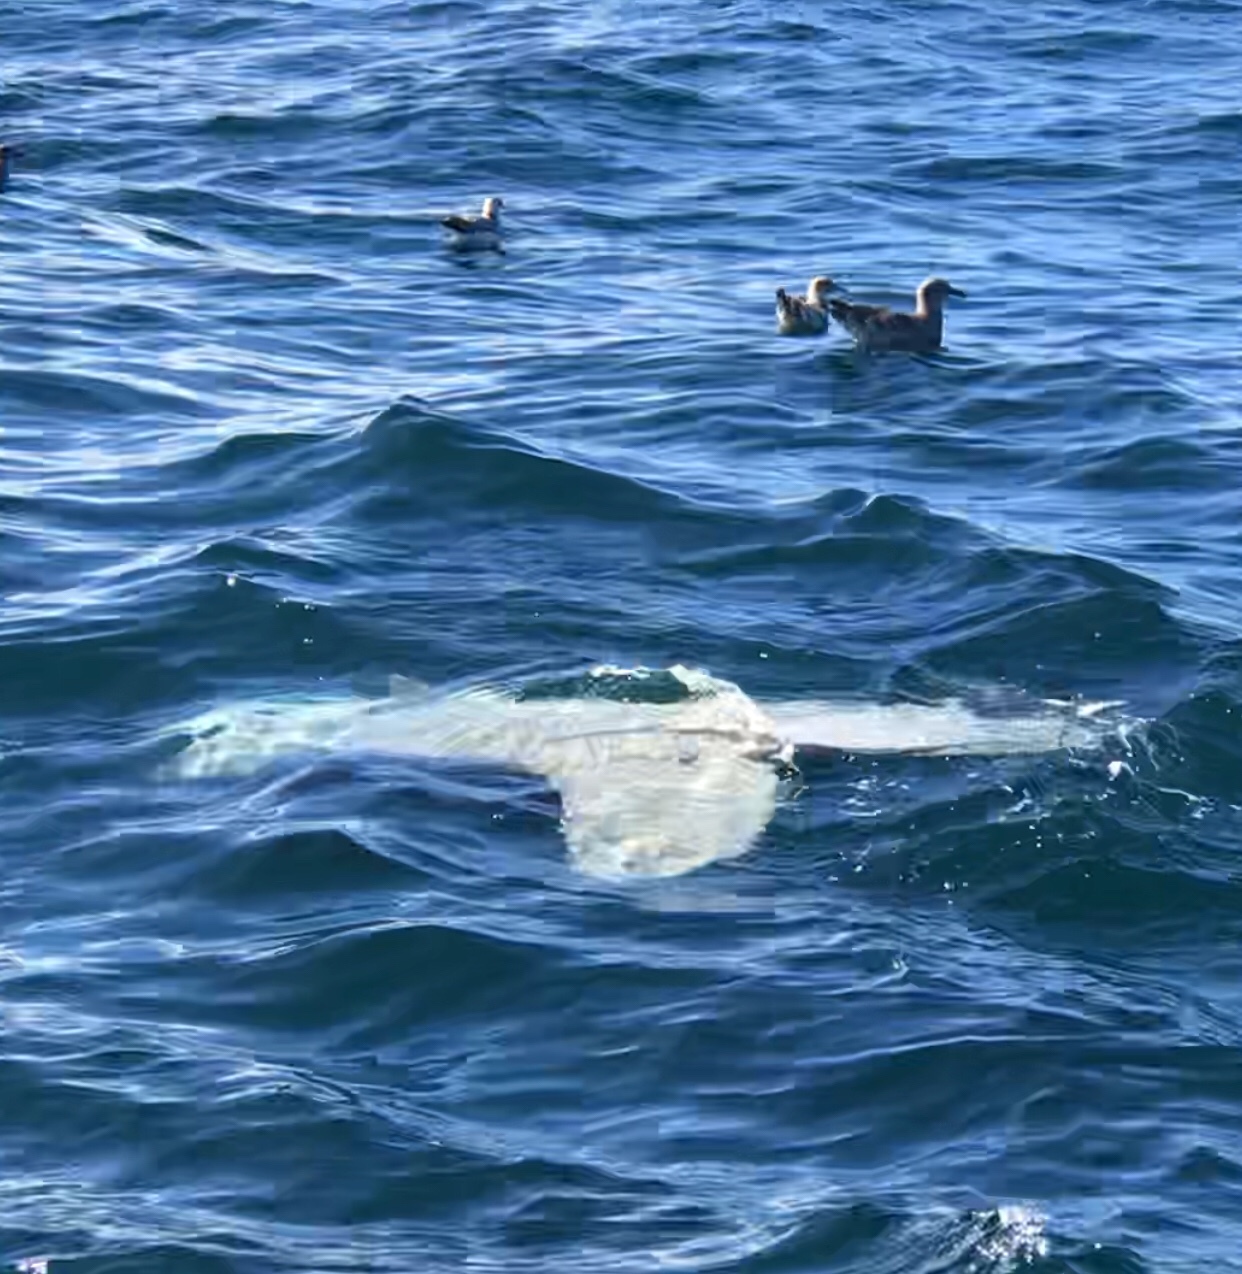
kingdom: Animalia
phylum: Chordata
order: Tetraodontiformes
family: Molidae
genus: Mola
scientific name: Mola mola
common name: Ocean sunfish
